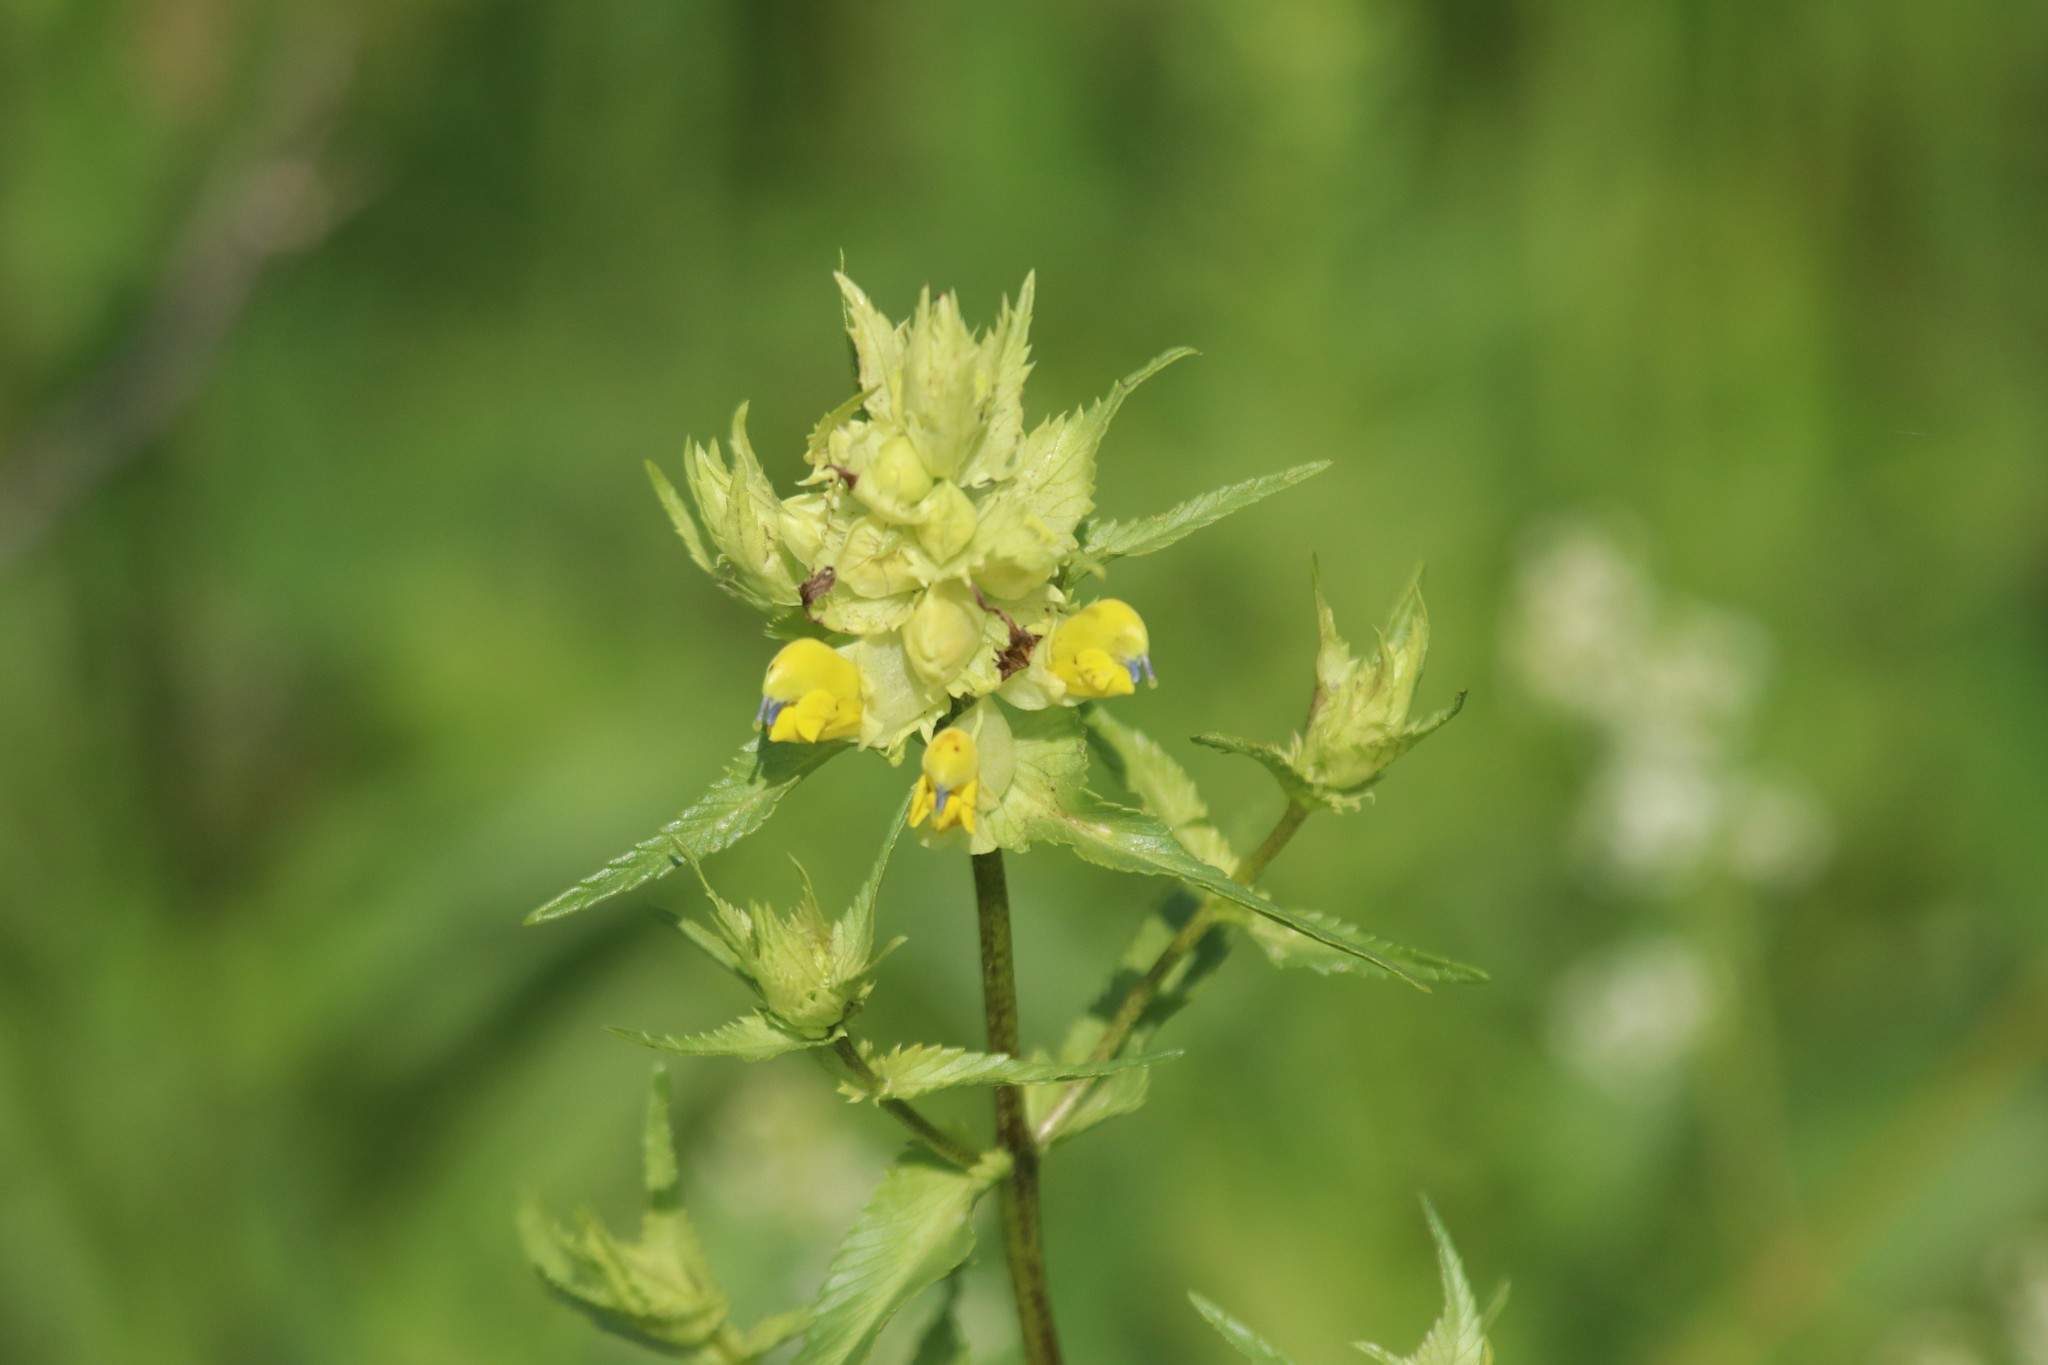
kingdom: Plantae
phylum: Tracheophyta
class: Magnoliopsida
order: Lamiales
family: Orobanchaceae
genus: Rhinanthus
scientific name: Rhinanthus serotinus
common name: Late-flowering yellow rattle
